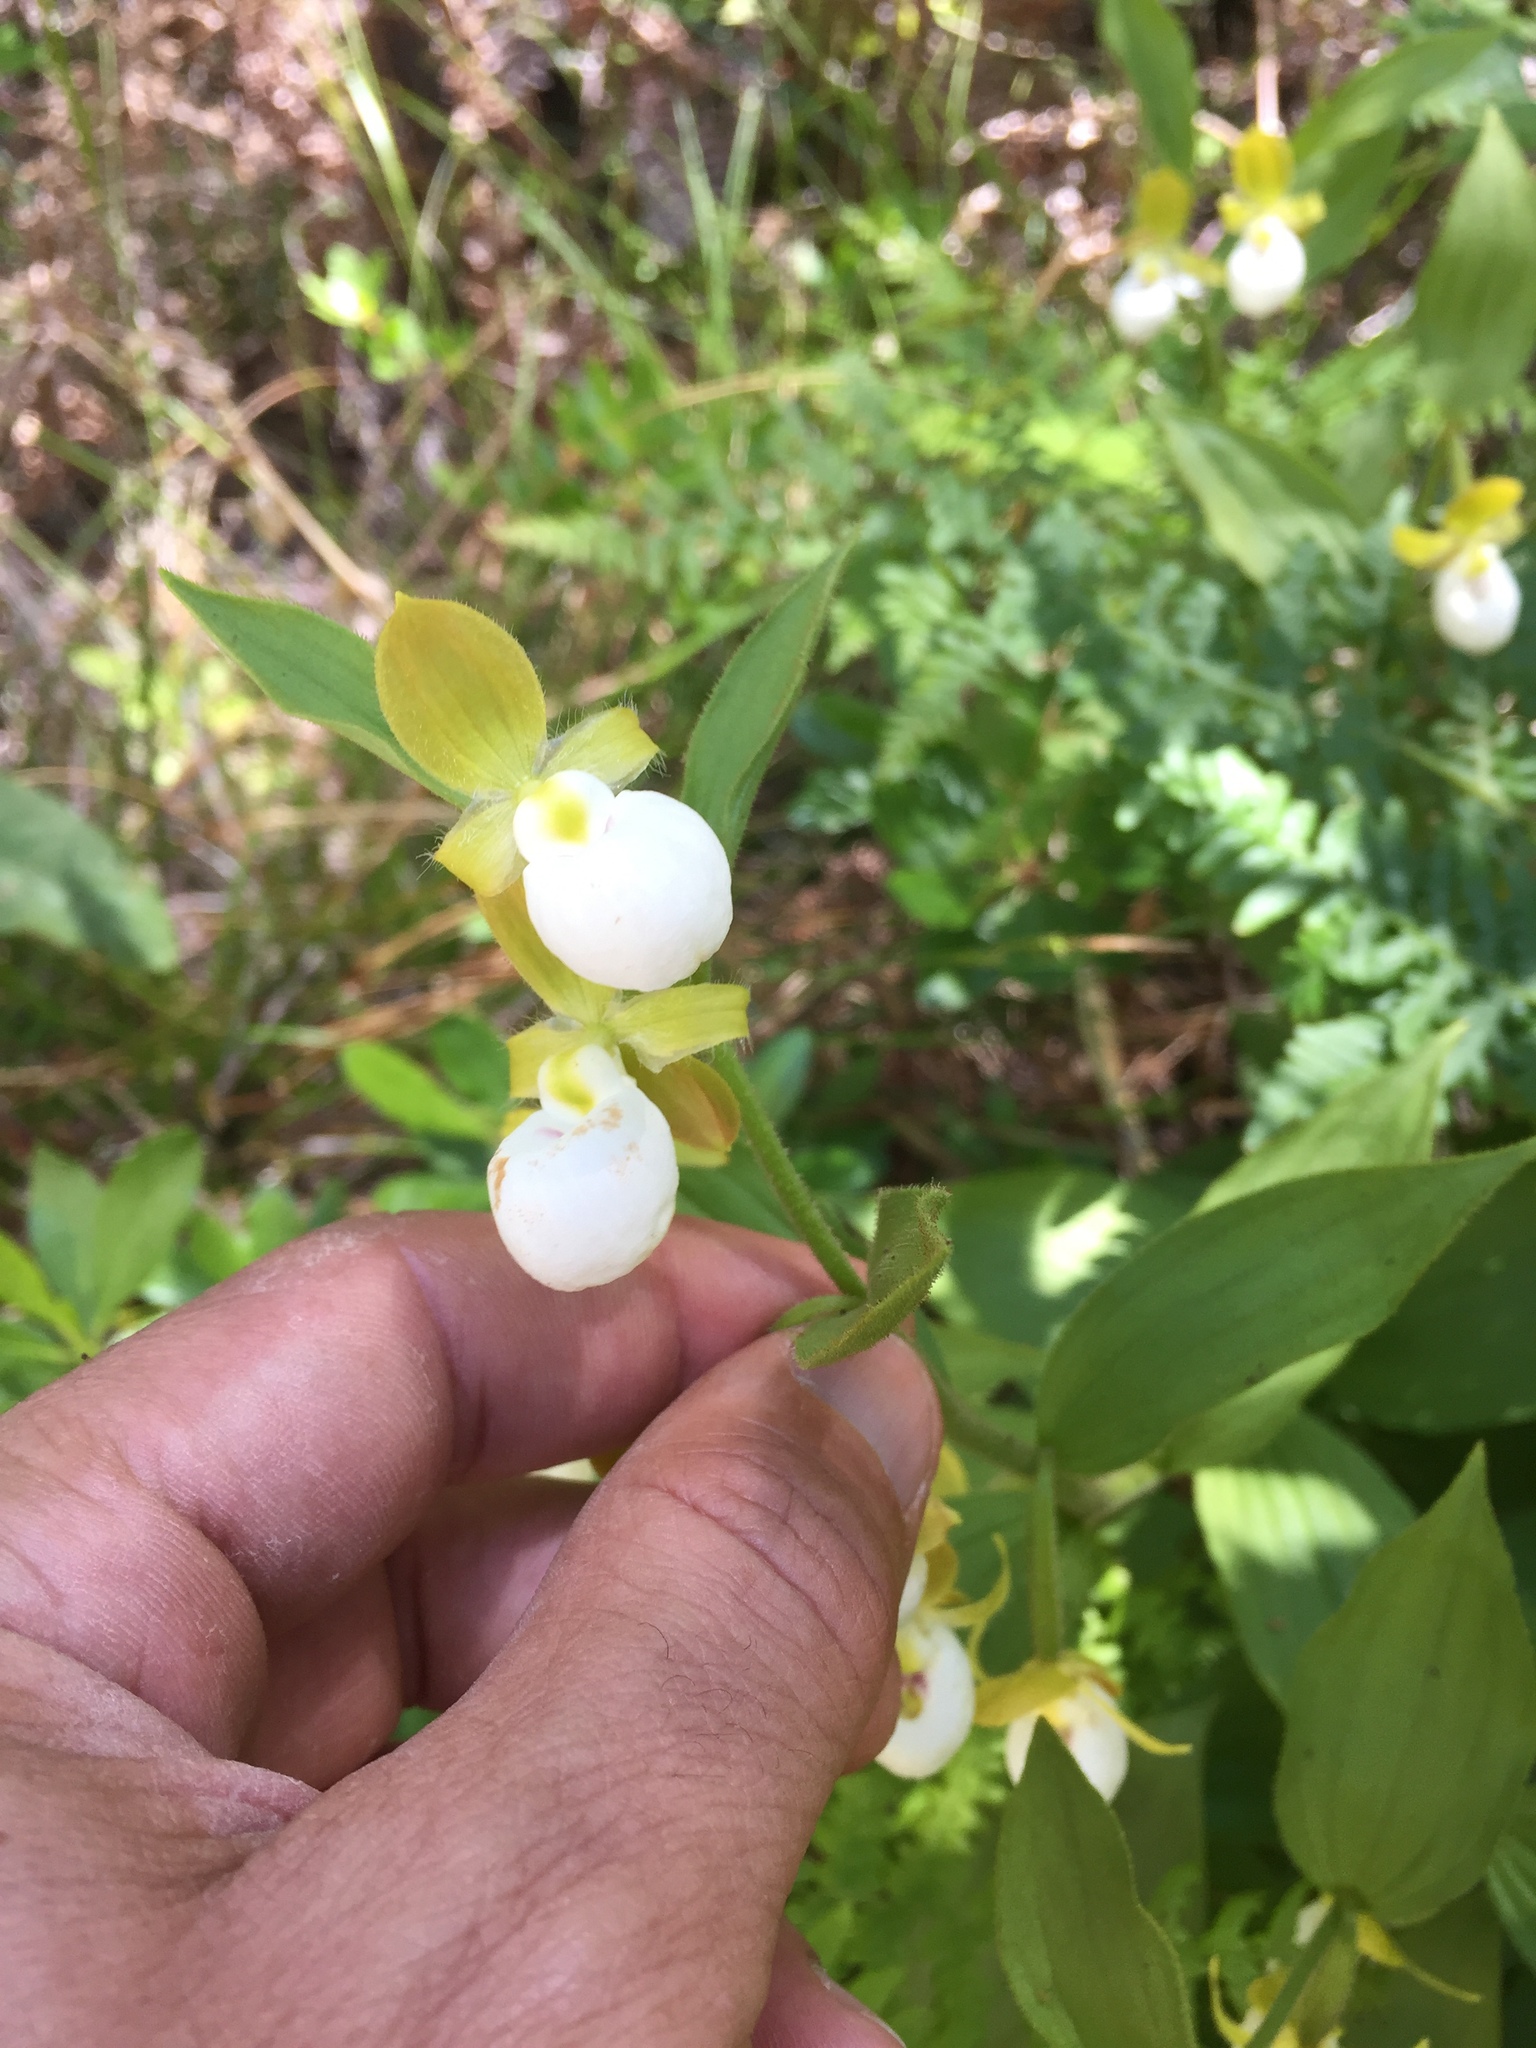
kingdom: Plantae
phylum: Tracheophyta
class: Liliopsida
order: Asparagales
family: Orchidaceae
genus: Cypripedium
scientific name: Cypripedium californicum
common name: California lady's slipper
